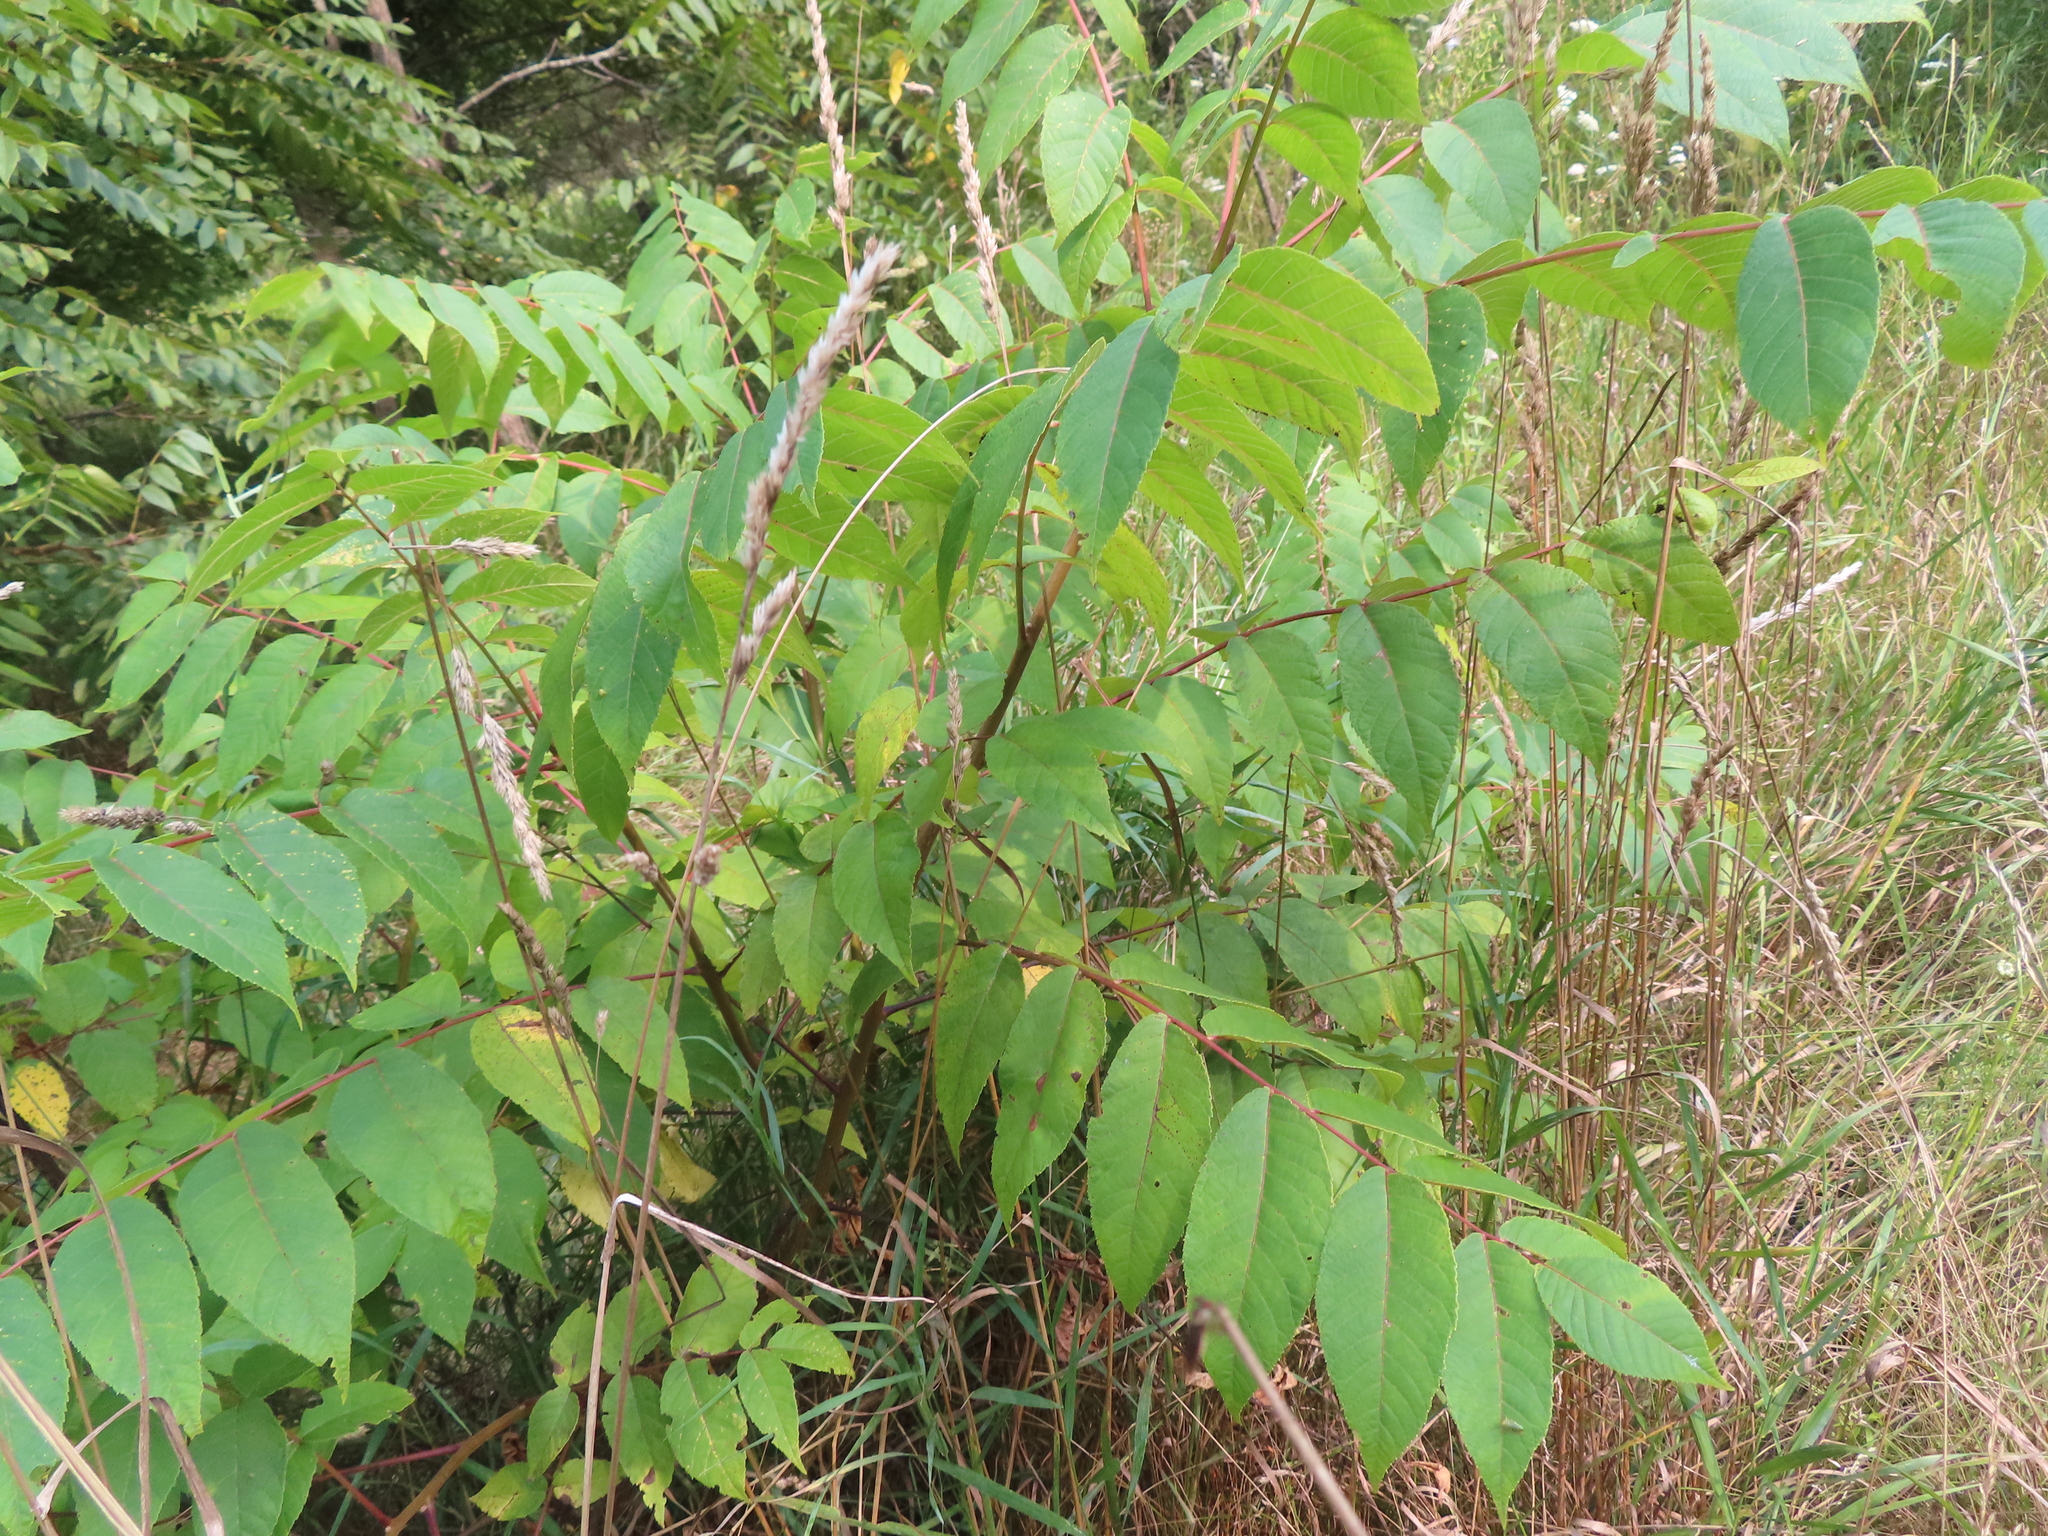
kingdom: Plantae
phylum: Tracheophyta
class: Magnoliopsida
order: Fagales
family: Juglandaceae
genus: Juglans
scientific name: Juglans nigra
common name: Black walnut
